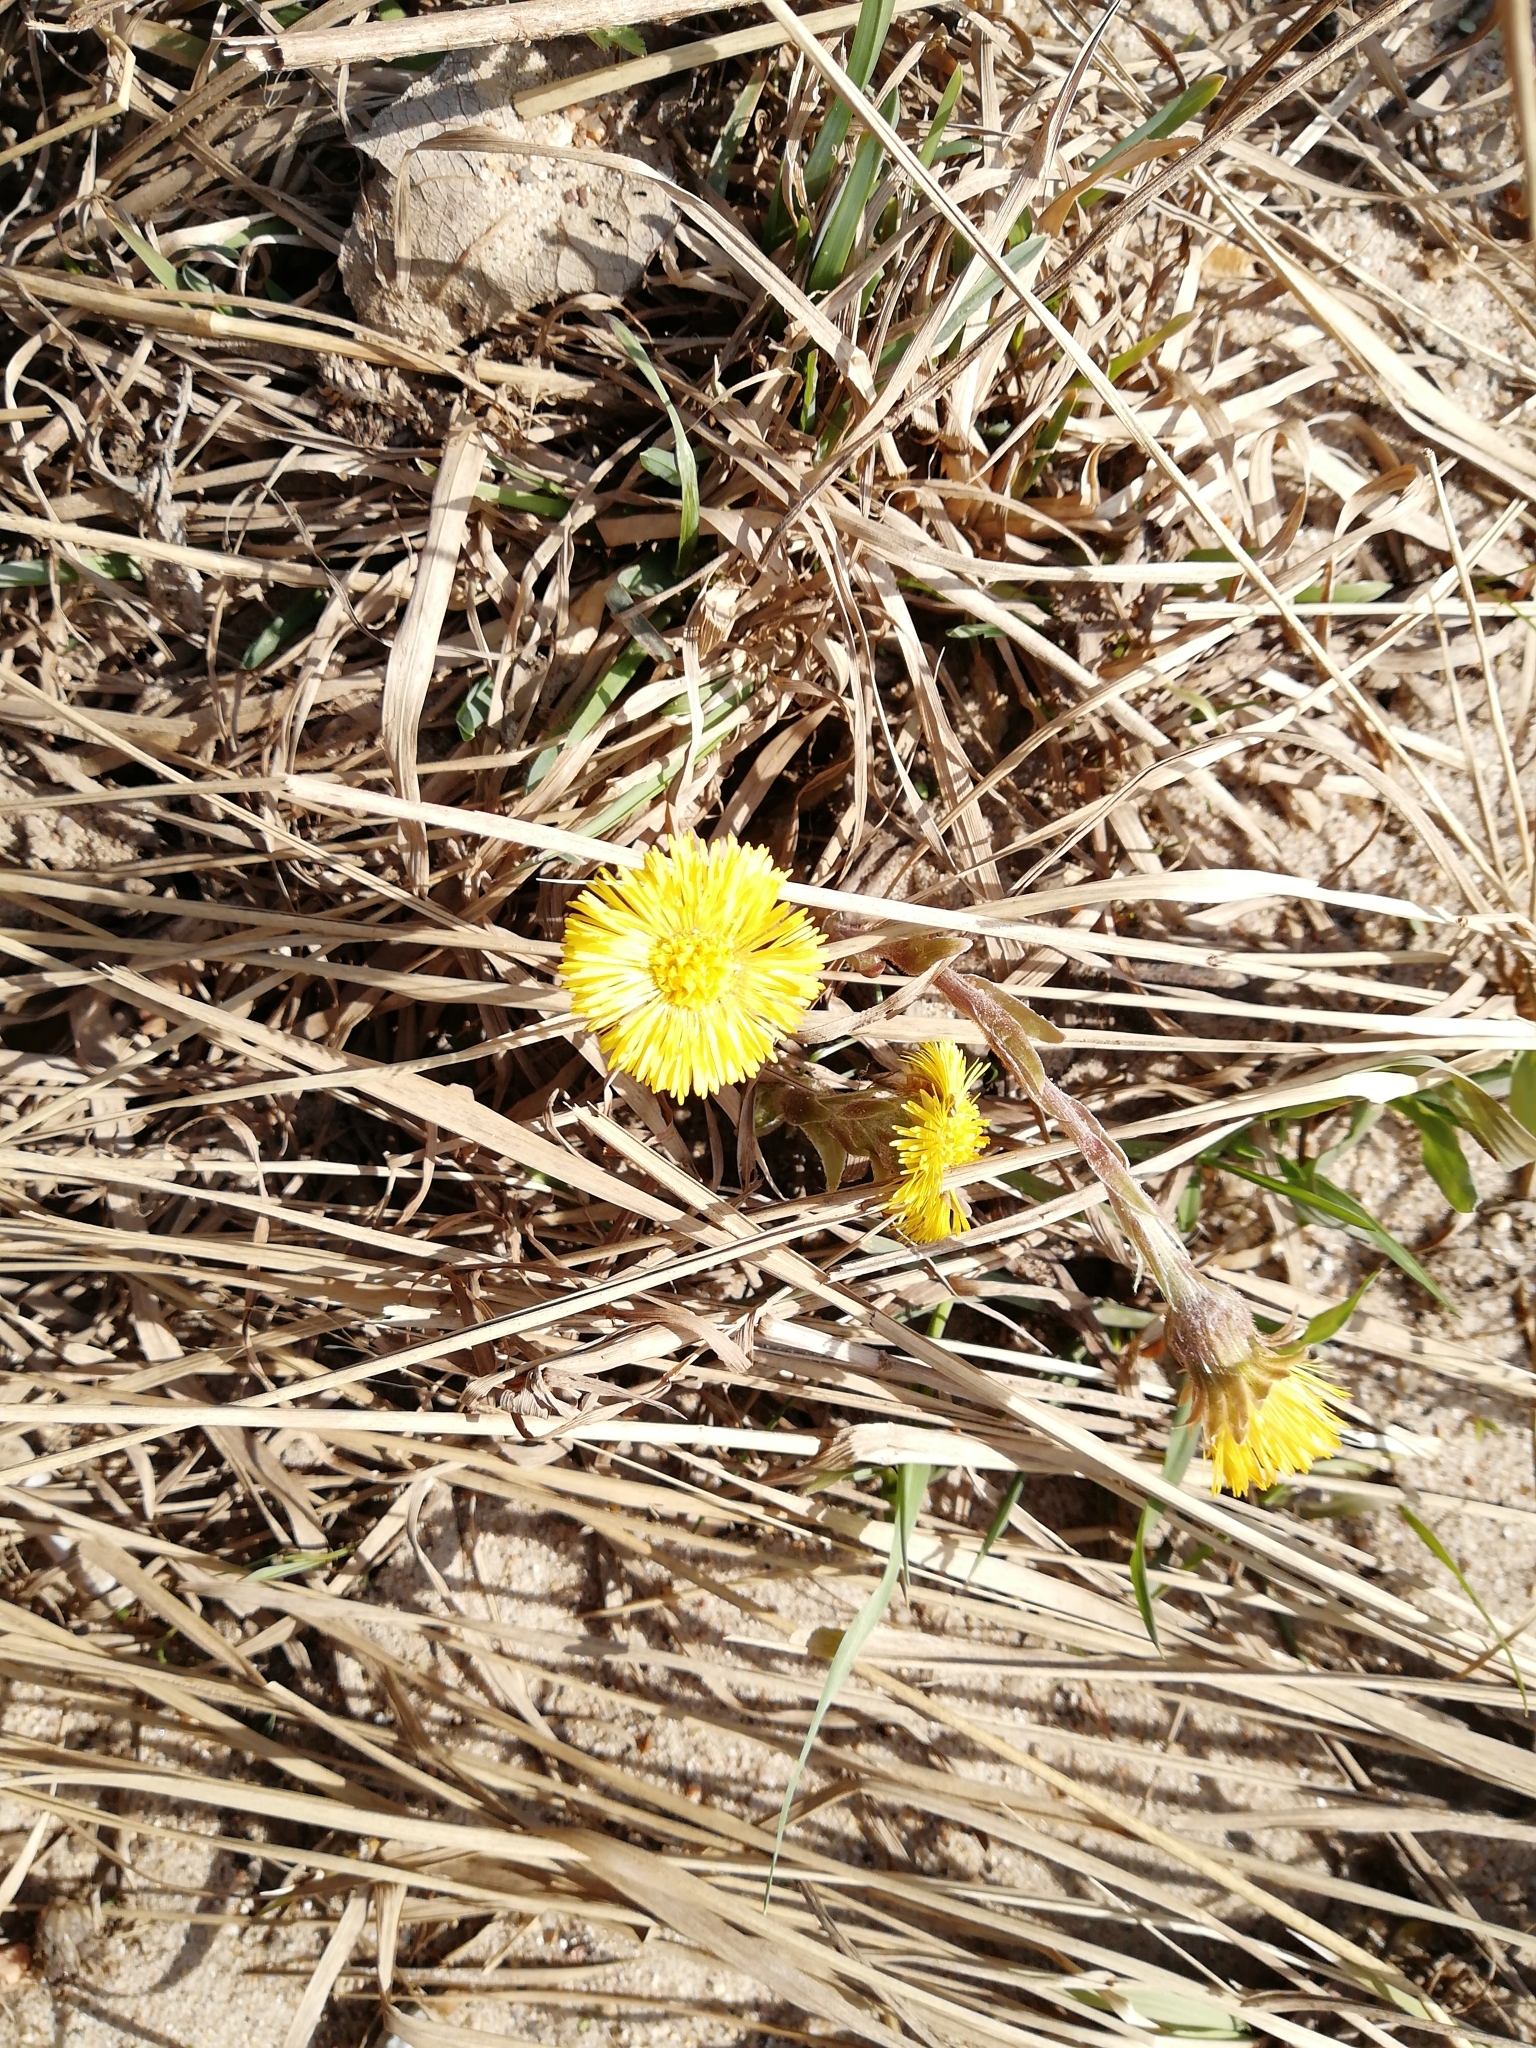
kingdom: Plantae
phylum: Tracheophyta
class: Magnoliopsida
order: Asterales
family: Asteraceae
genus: Tussilago
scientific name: Tussilago farfara
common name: Coltsfoot
